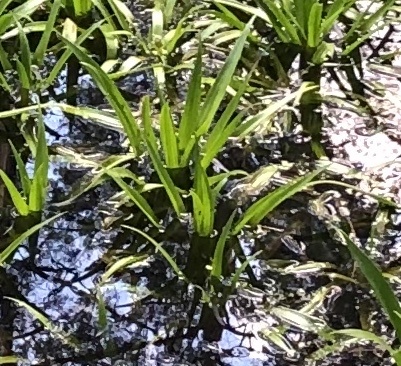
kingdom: Plantae
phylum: Tracheophyta
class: Liliopsida
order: Alismatales
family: Hydrocharitaceae
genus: Stratiotes
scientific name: Stratiotes aloides
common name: Water-soldier
